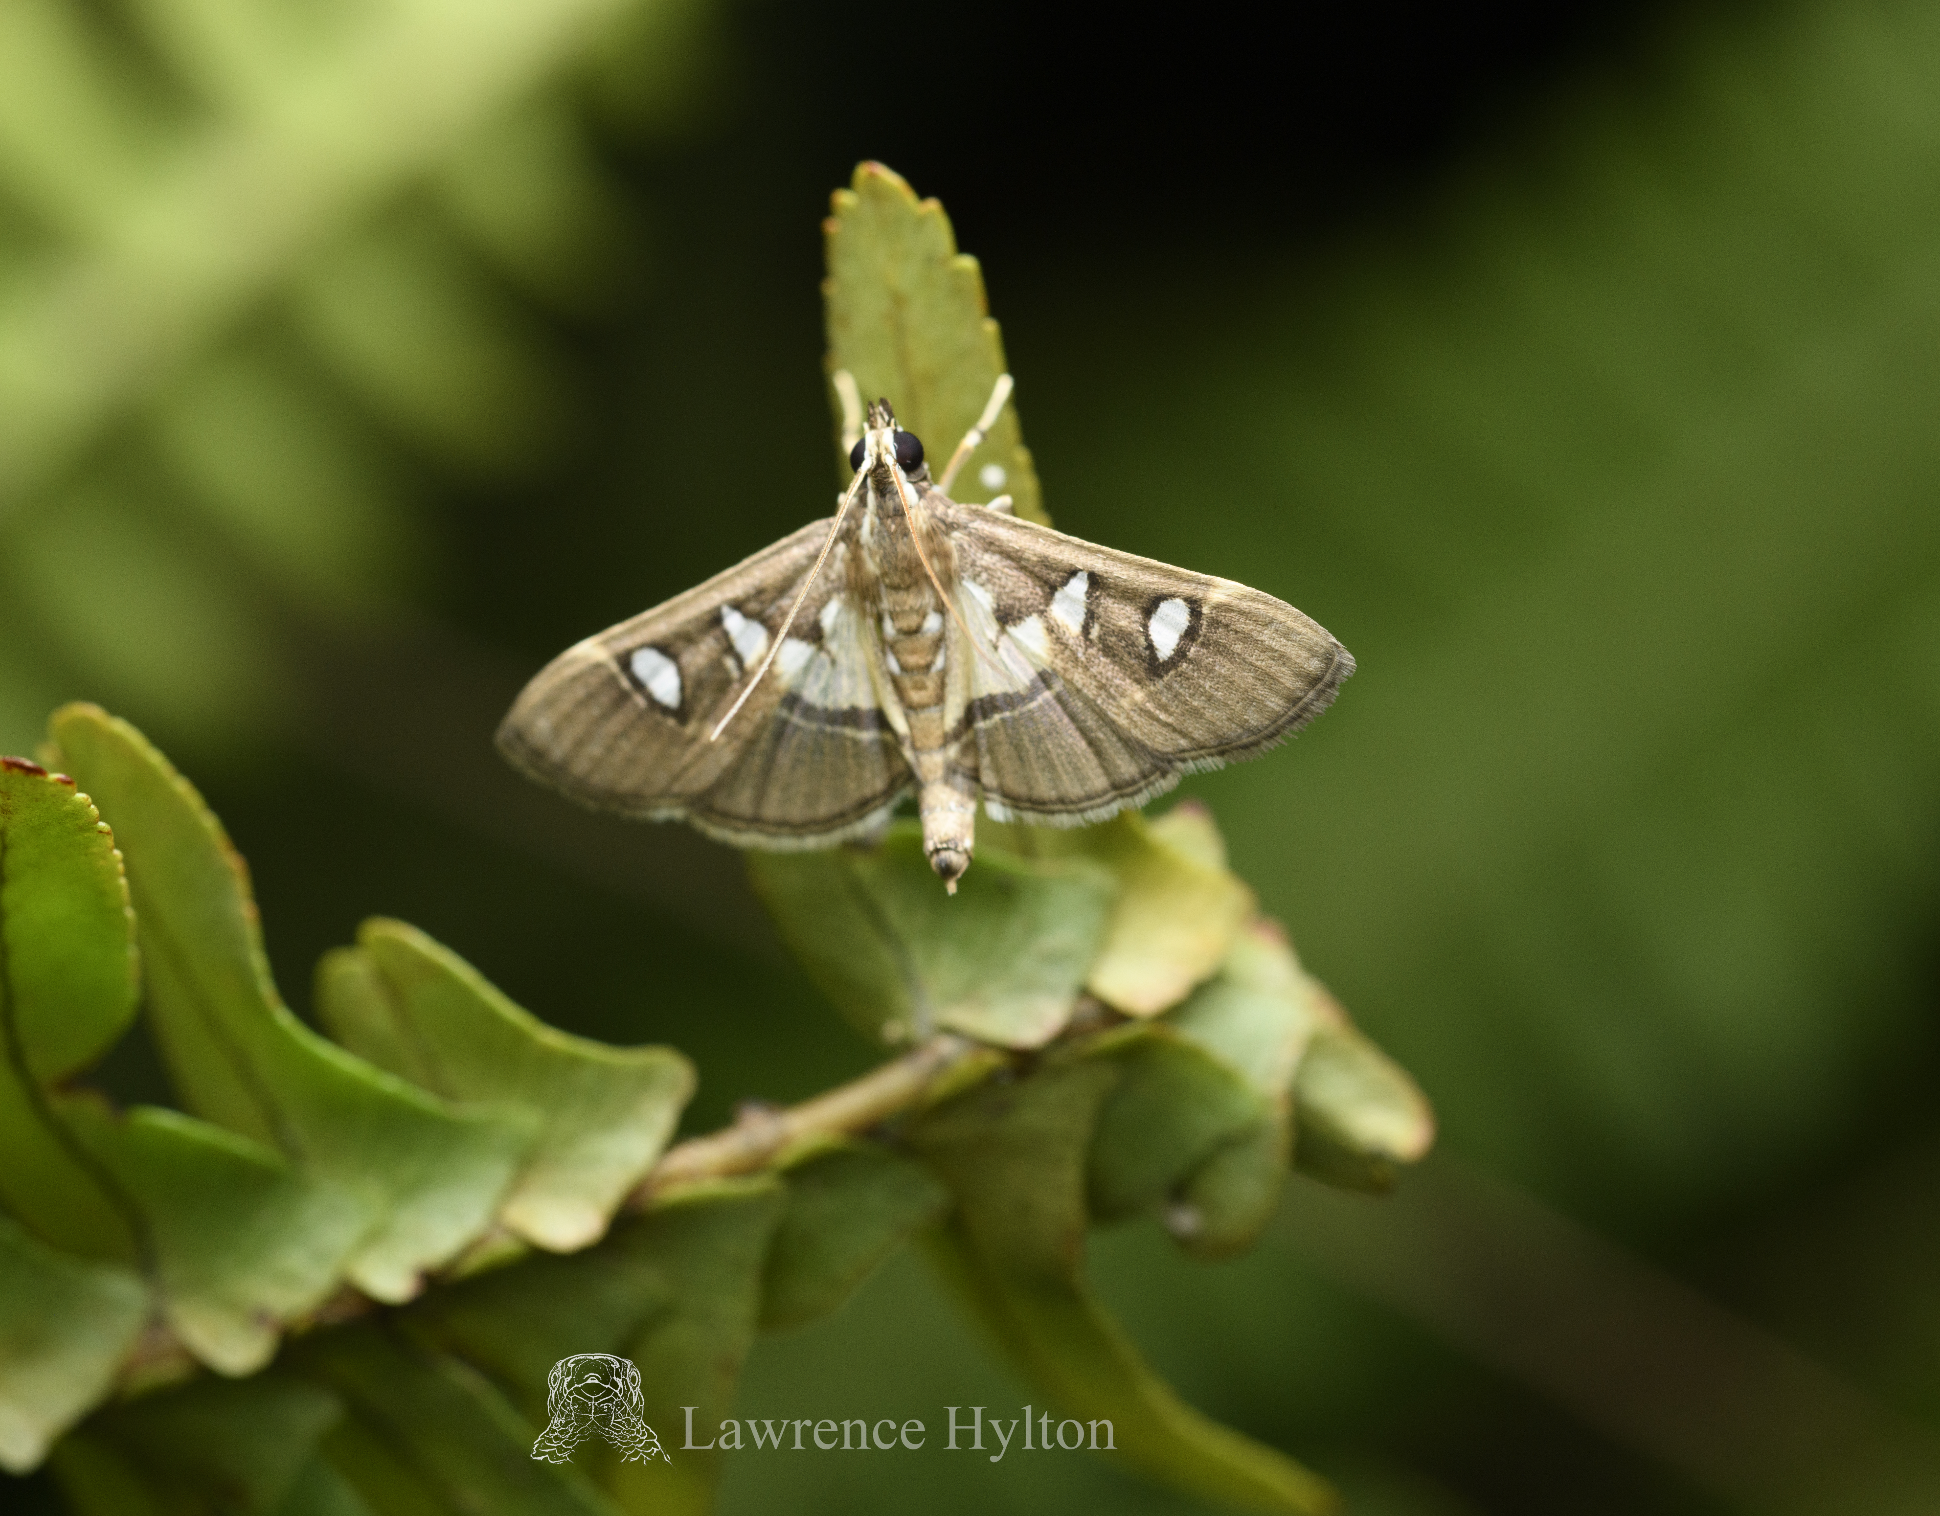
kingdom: Animalia
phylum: Arthropoda
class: Insecta
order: Lepidoptera
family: Crambidae
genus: Glyphodes
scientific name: Glyphodes crithealis
